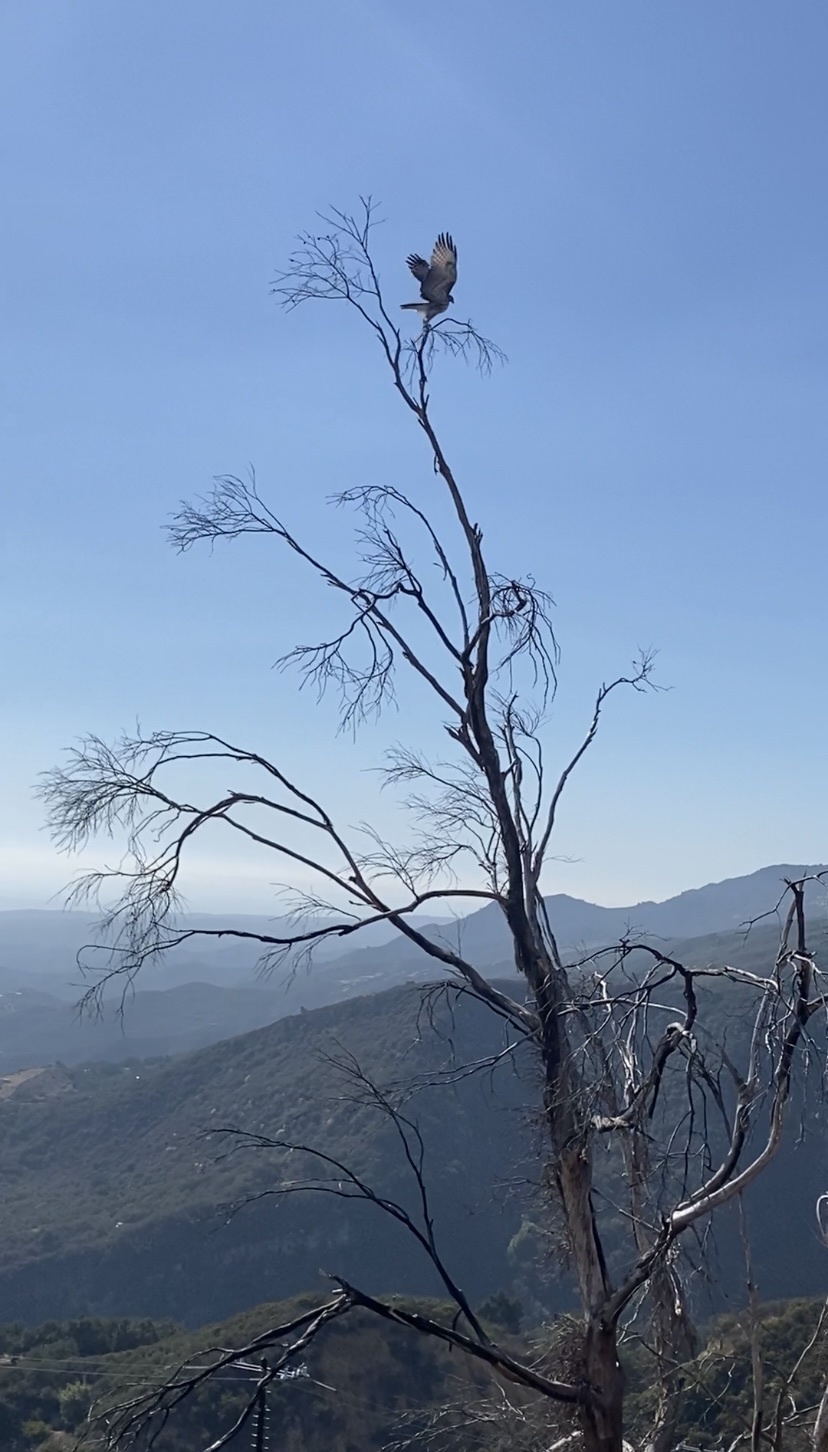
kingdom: Animalia
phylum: Chordata
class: Aves
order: Accipitriformes
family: Accipitridae
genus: Buteo
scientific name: Buteo jamaicensis
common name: Red-tailed hawk
